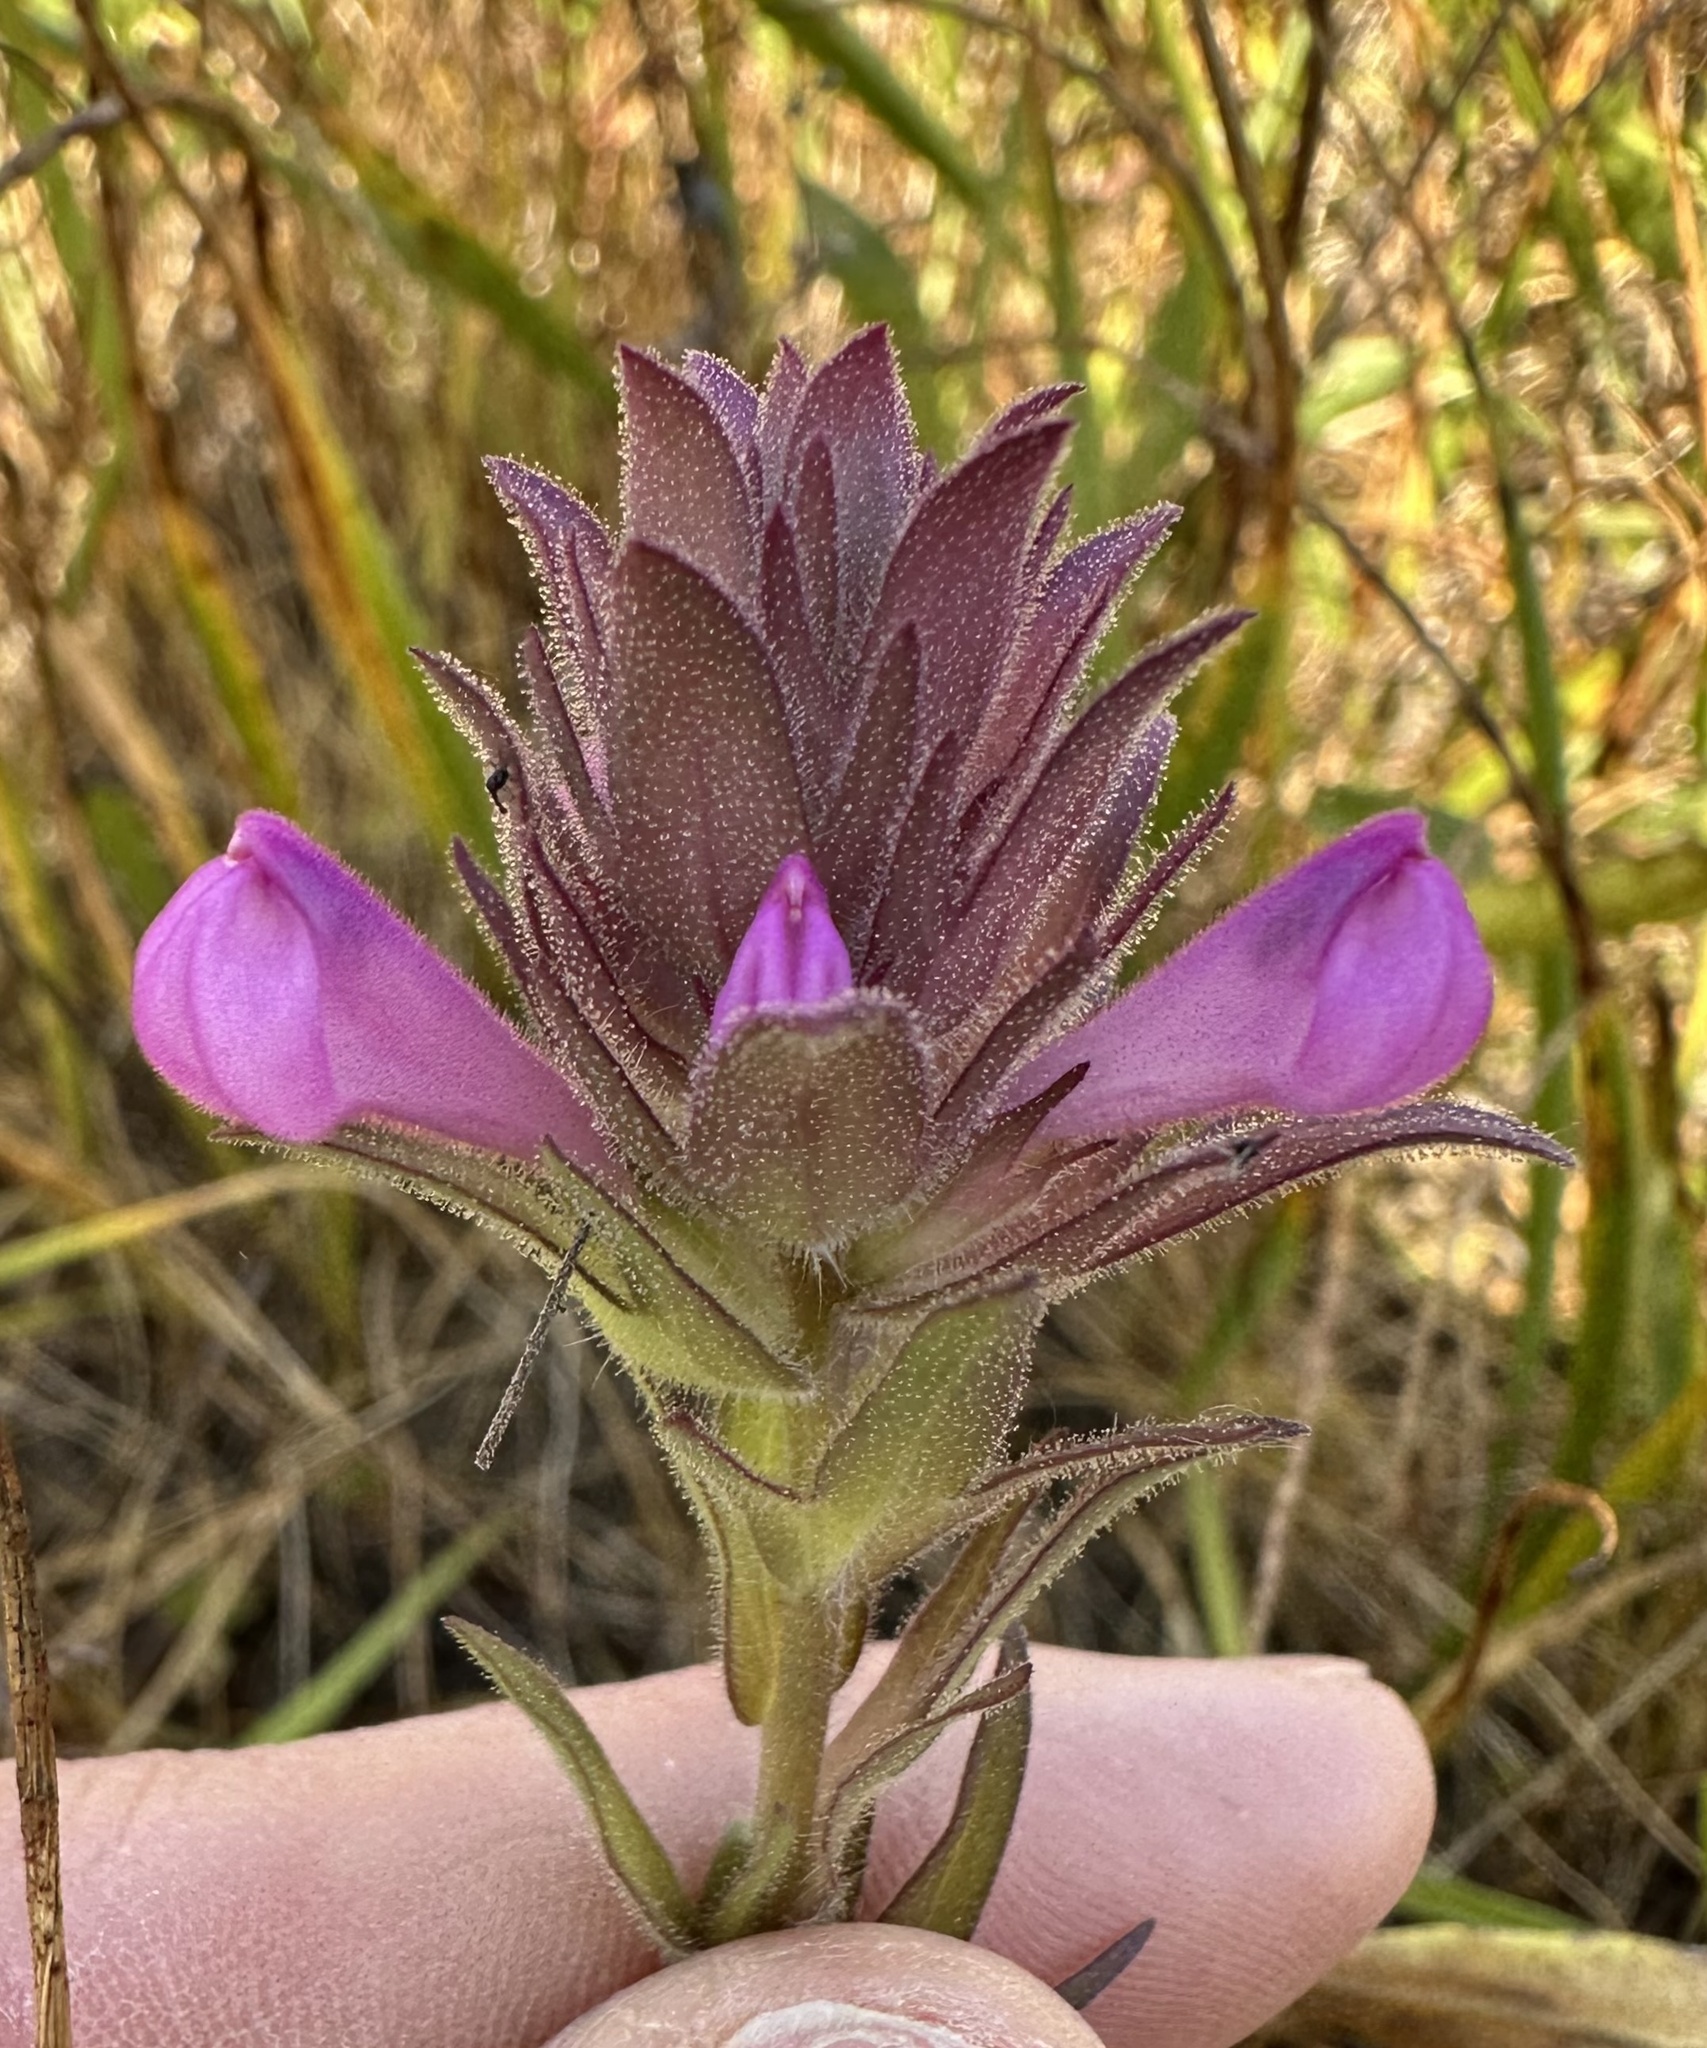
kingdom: Plantae
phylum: Tracheophyta
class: Magnoliopsida
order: Lamiales
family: Orobanchaceae
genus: Orthocarpus
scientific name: Orthocarpus bracteosus
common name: Rosy owl's-clover
